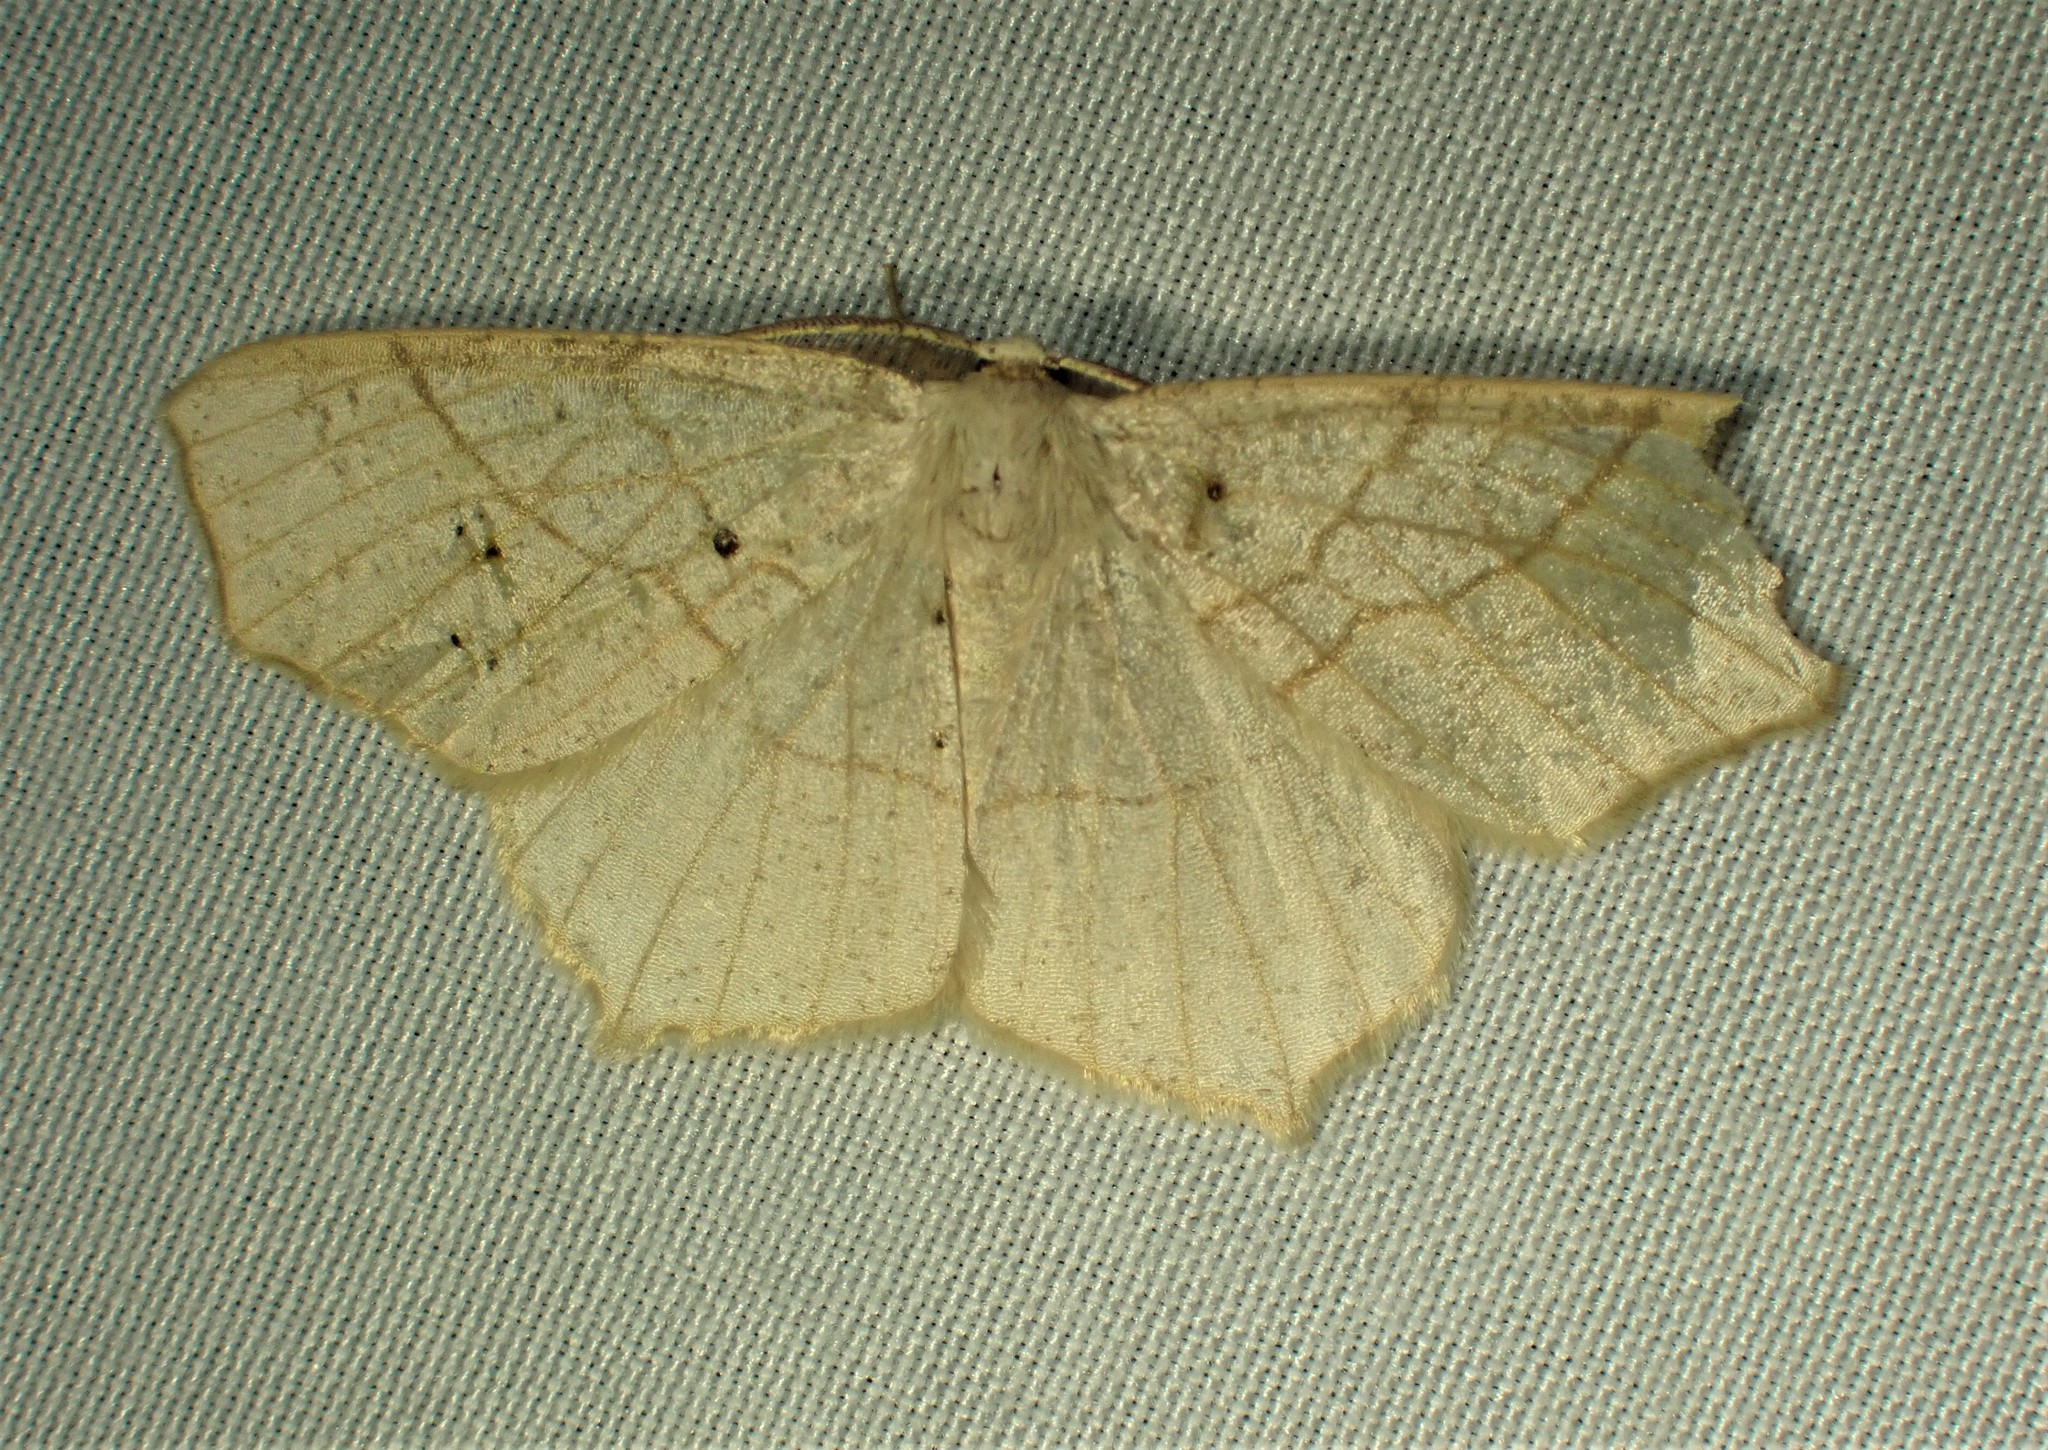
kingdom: Animalia
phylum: Arthropoda
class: Insecta
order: Lepidoptera
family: Geometridae
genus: Besma
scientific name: Besma quercivoraria
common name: Oak besma
